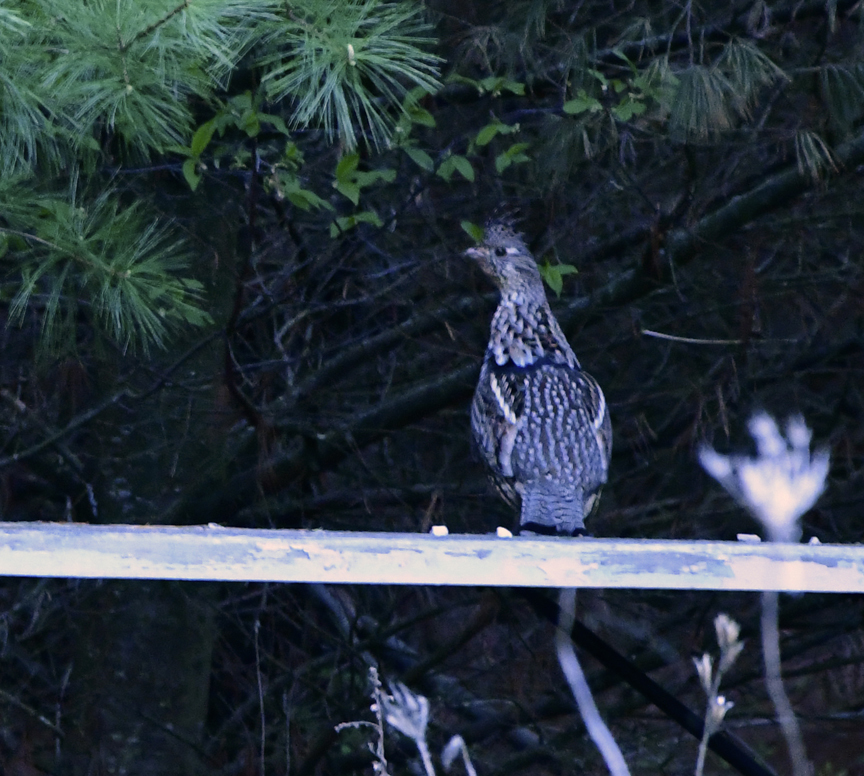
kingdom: Animalia
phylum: Chordata
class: Aves
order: Galliformes
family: Phasianidae
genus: Bonasa
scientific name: Bonasa umbellus
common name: Ruffed grouse
